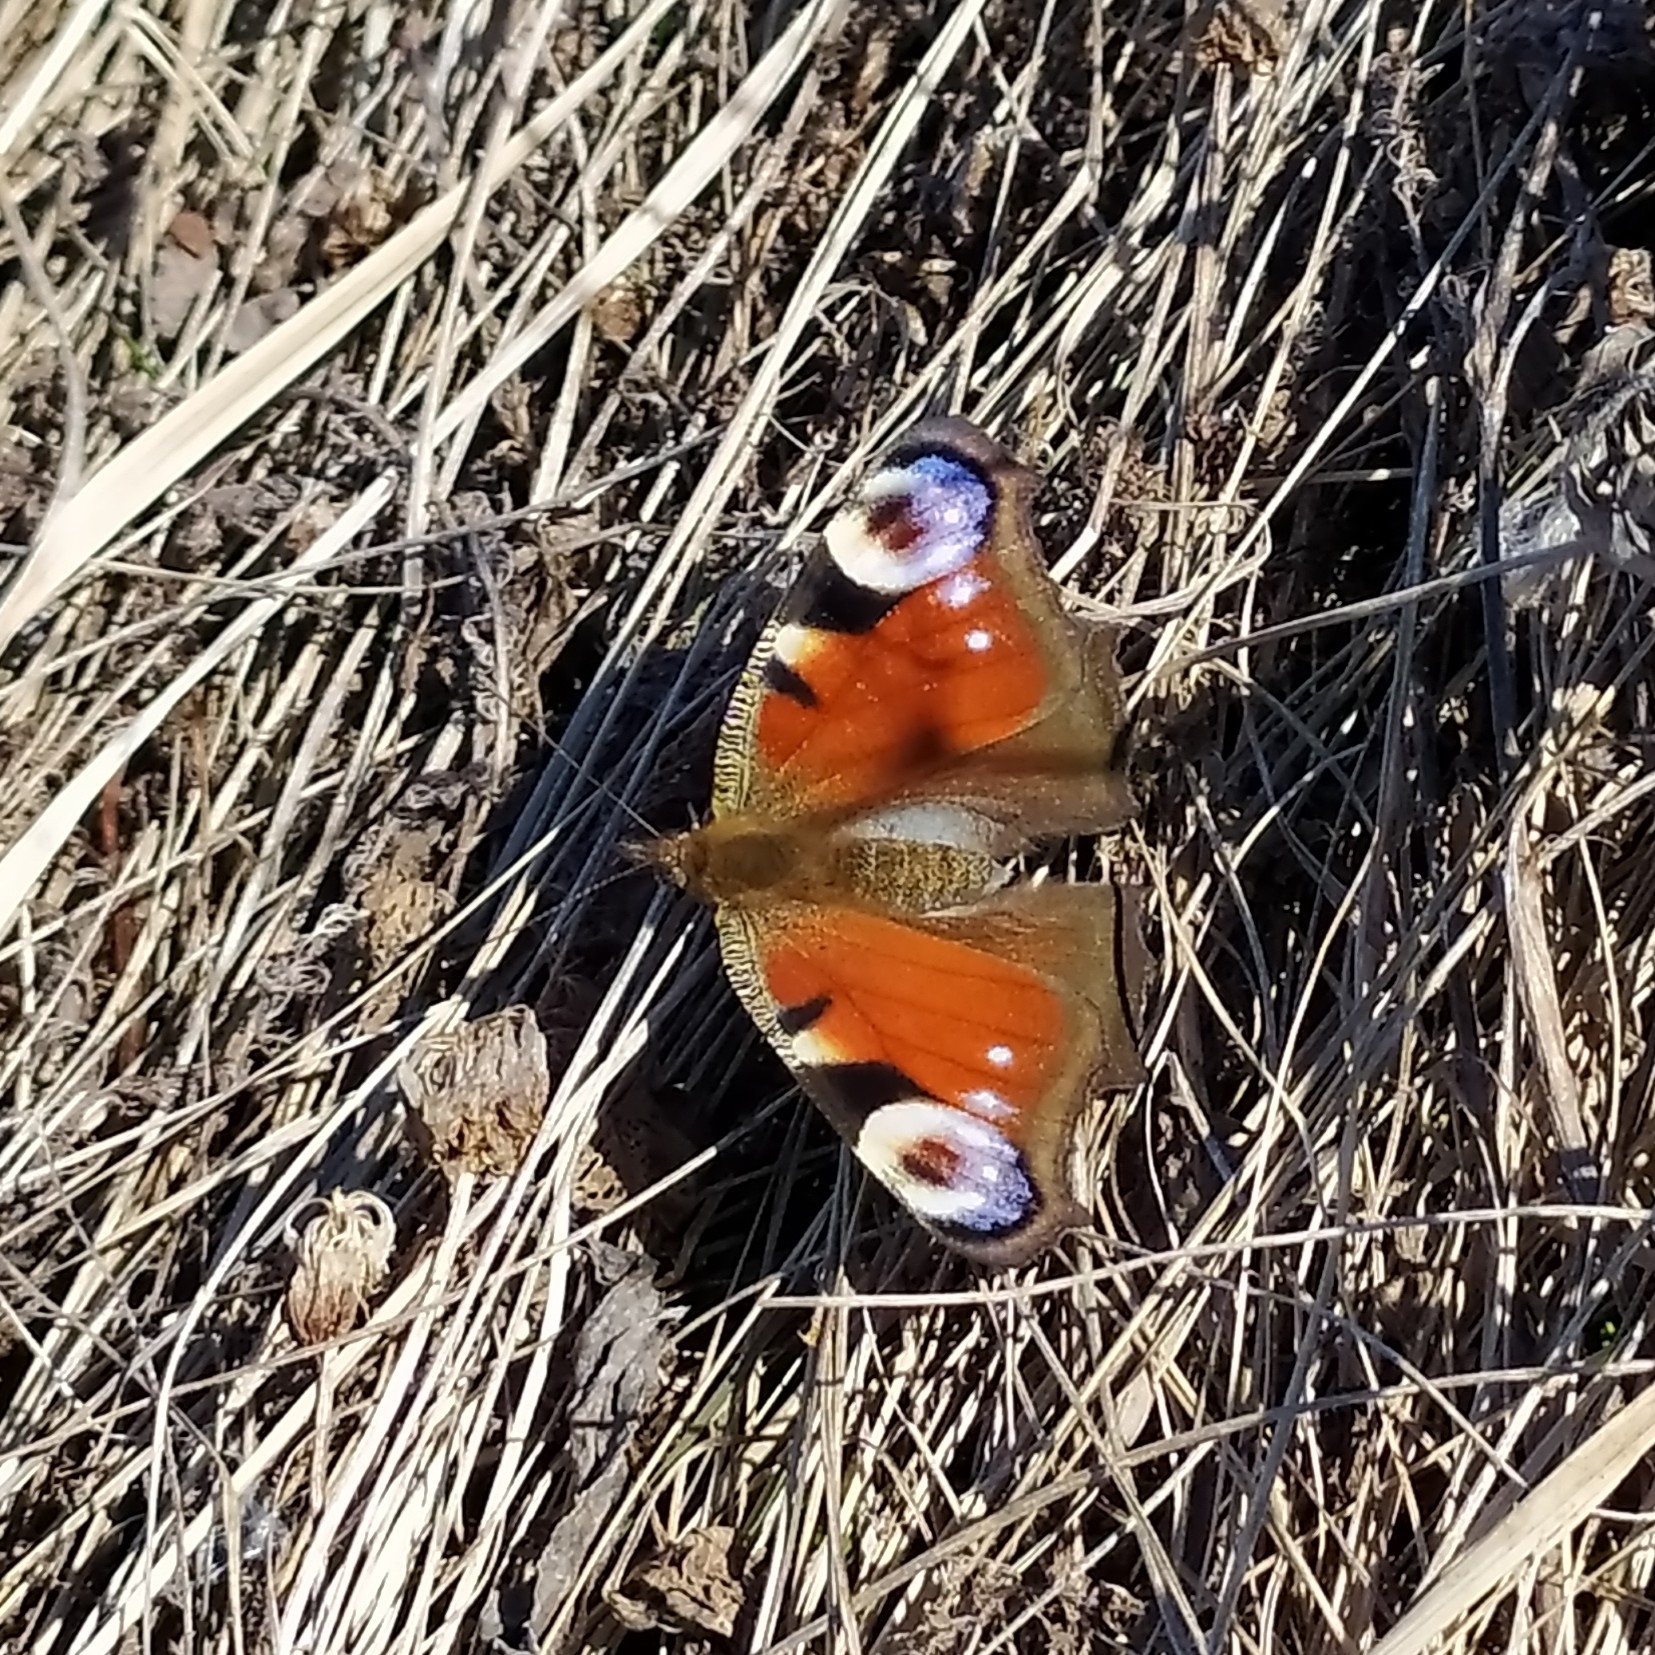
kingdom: Animalia
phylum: Arthropoda
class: Insecta
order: Lepidoptera
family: Nymphalidae
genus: Aglais
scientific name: Aglais io
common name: Peacock
